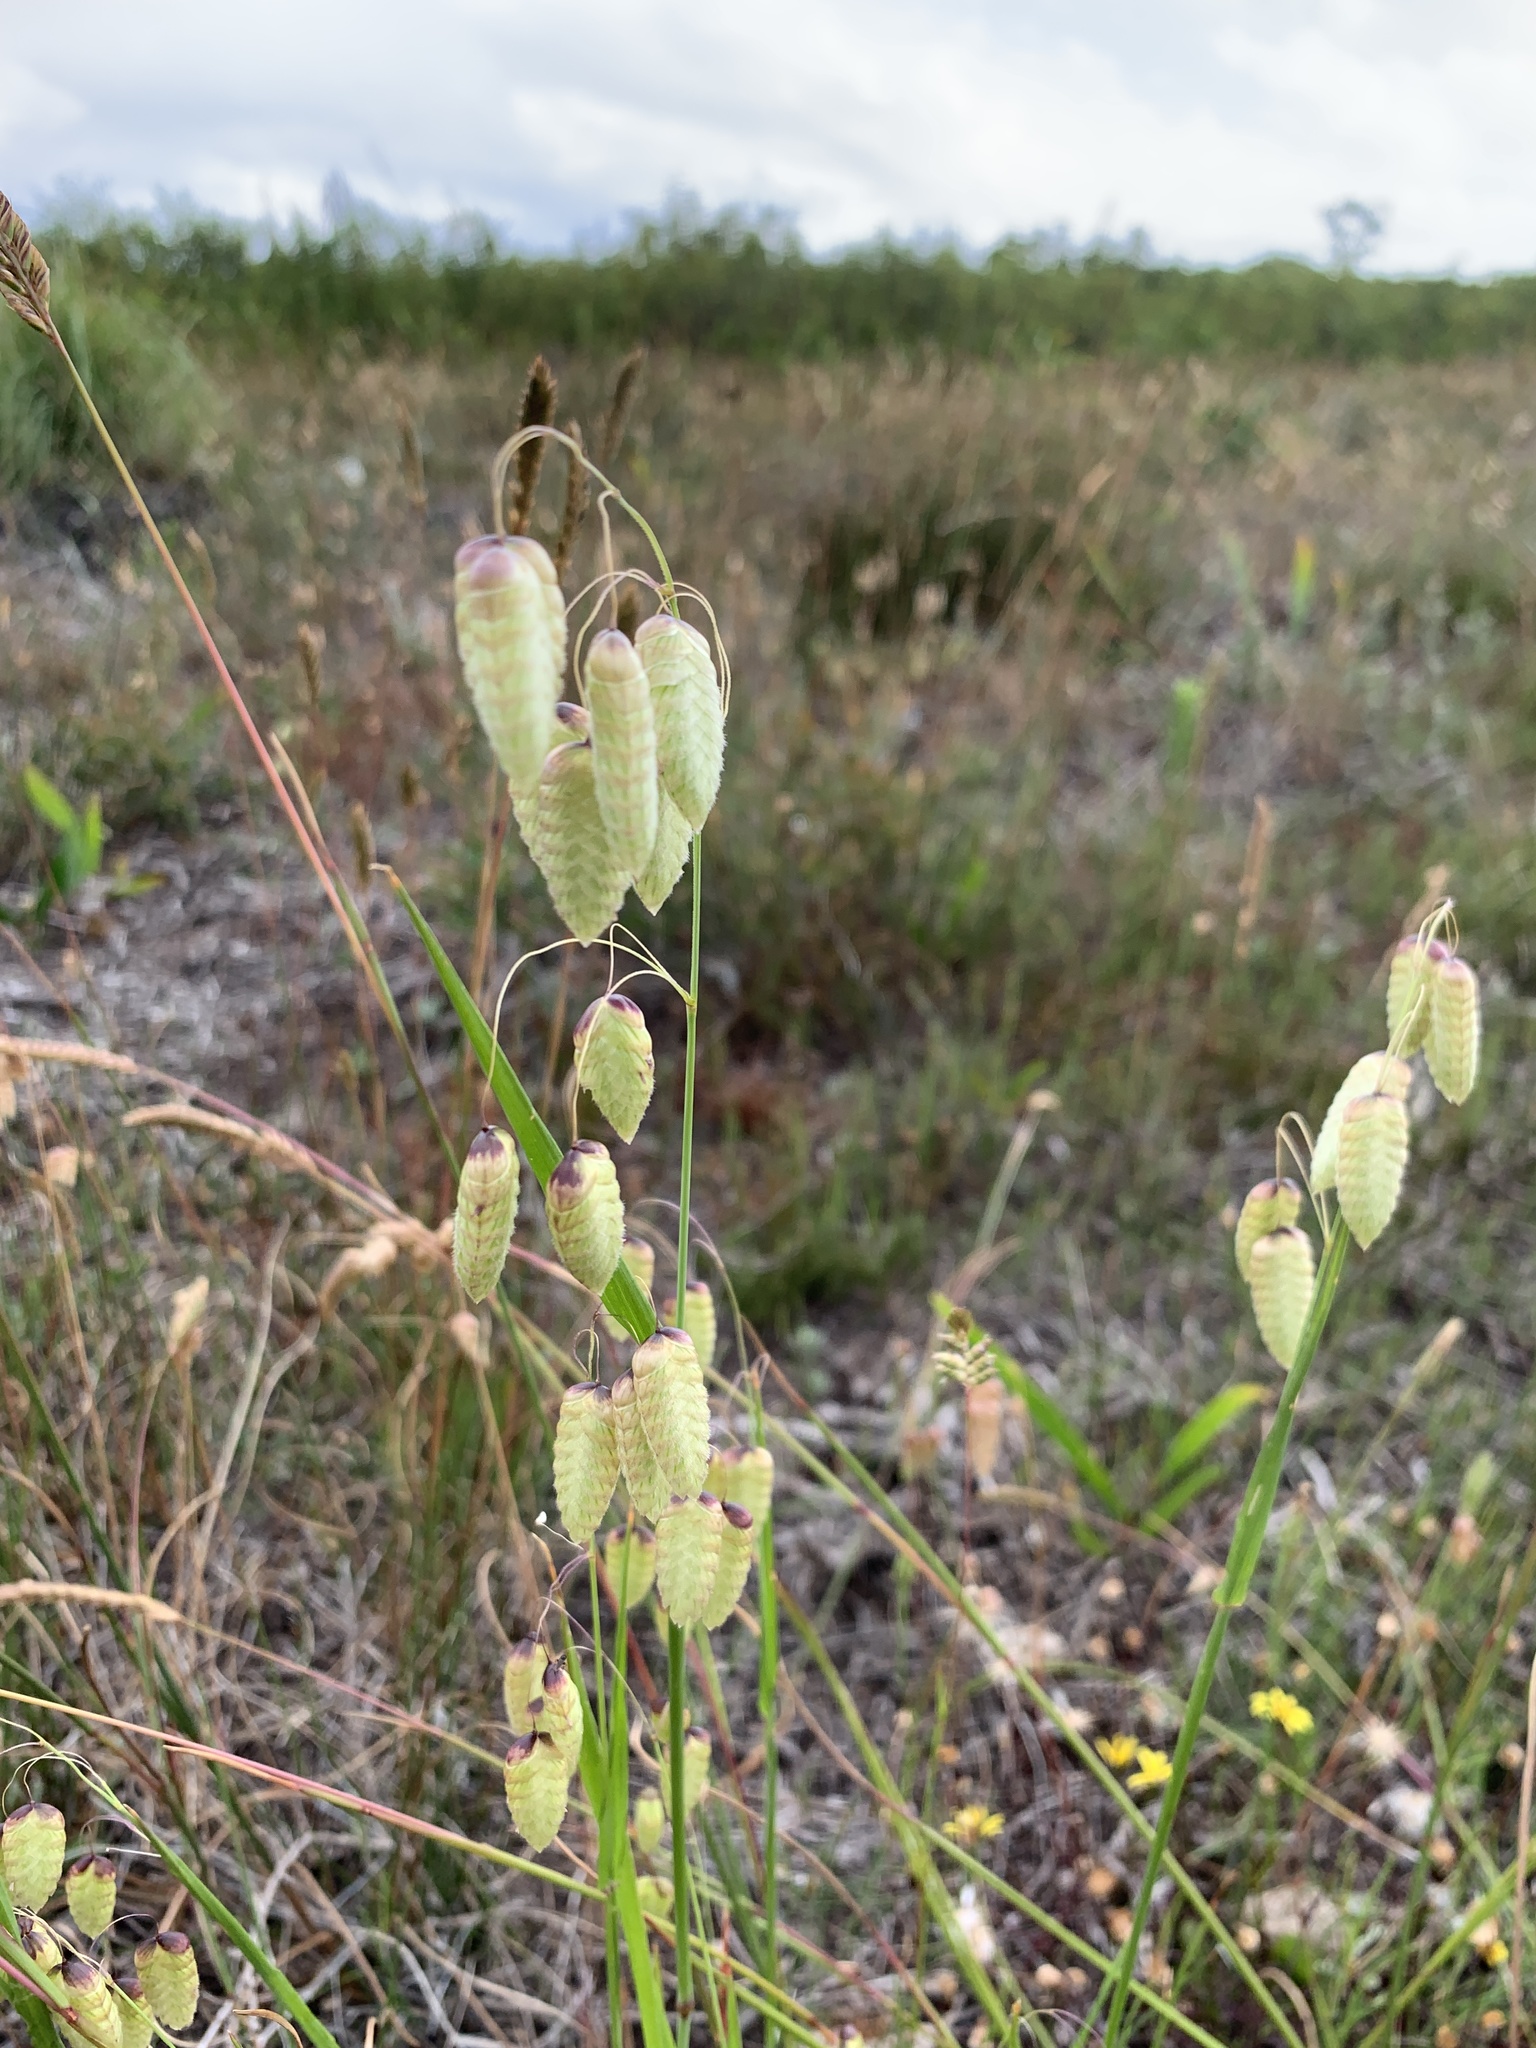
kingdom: Plantae
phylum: Tracheophyta
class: Liliopsida
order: Poales
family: Poaceae
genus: Briza
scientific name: Briza maxima
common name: Big quakinggrass
